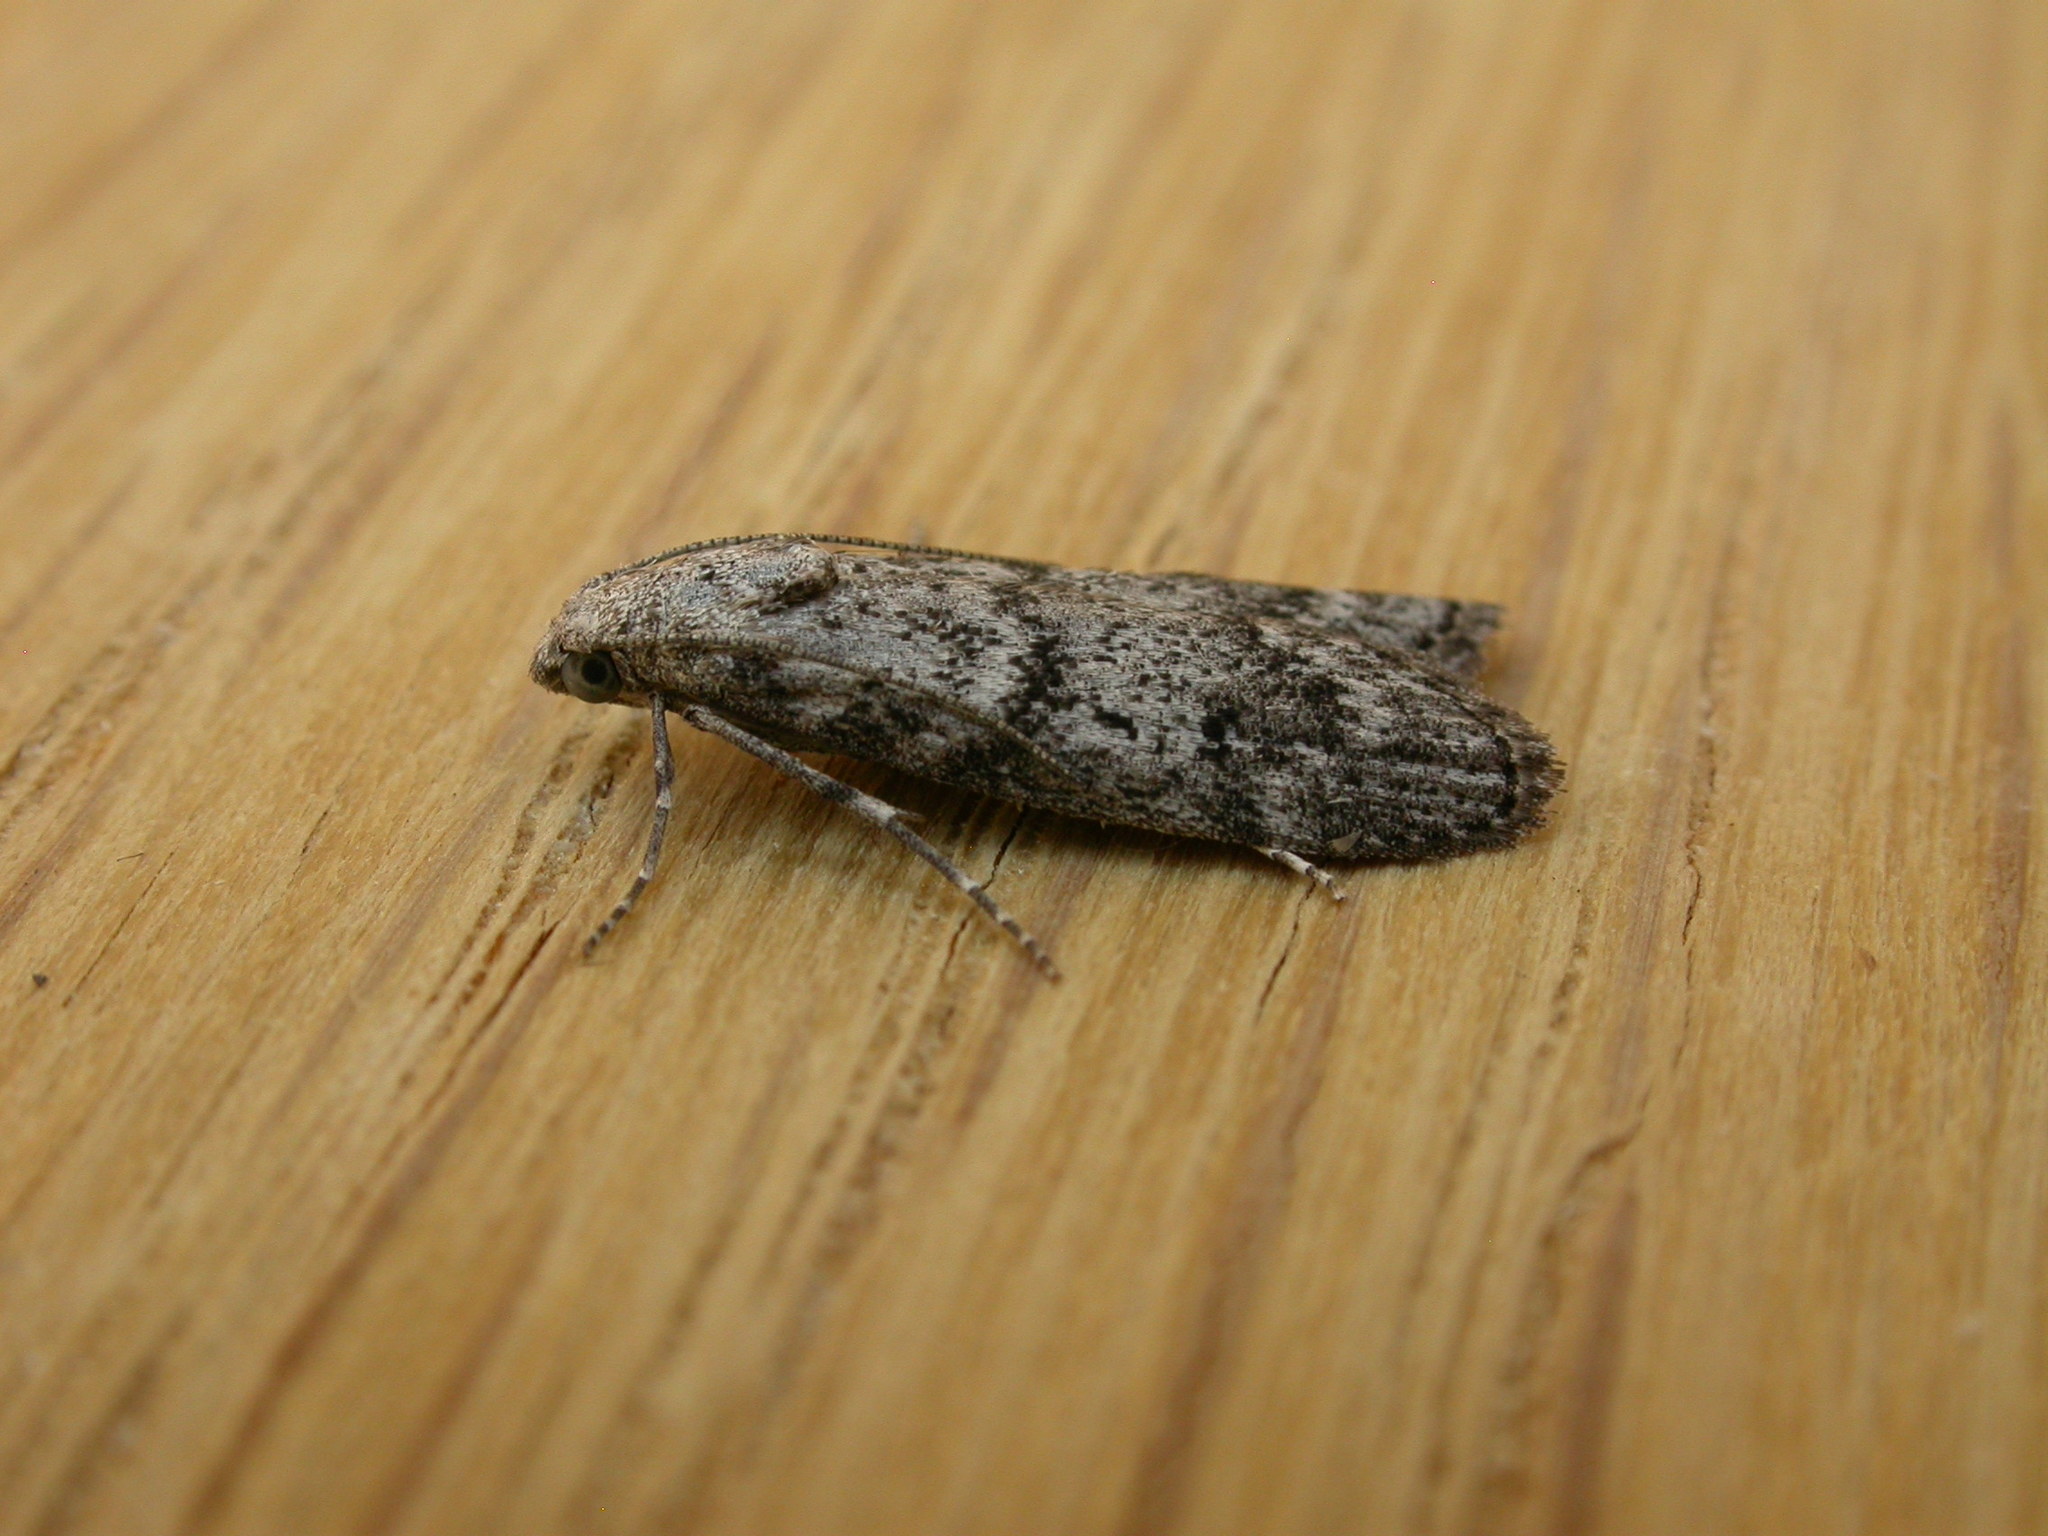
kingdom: Animalia
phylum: Arthropoda
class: Insecta
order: Lepidoptera
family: Pyralidae
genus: Heteromicta
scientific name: Heteromicta pachytera
